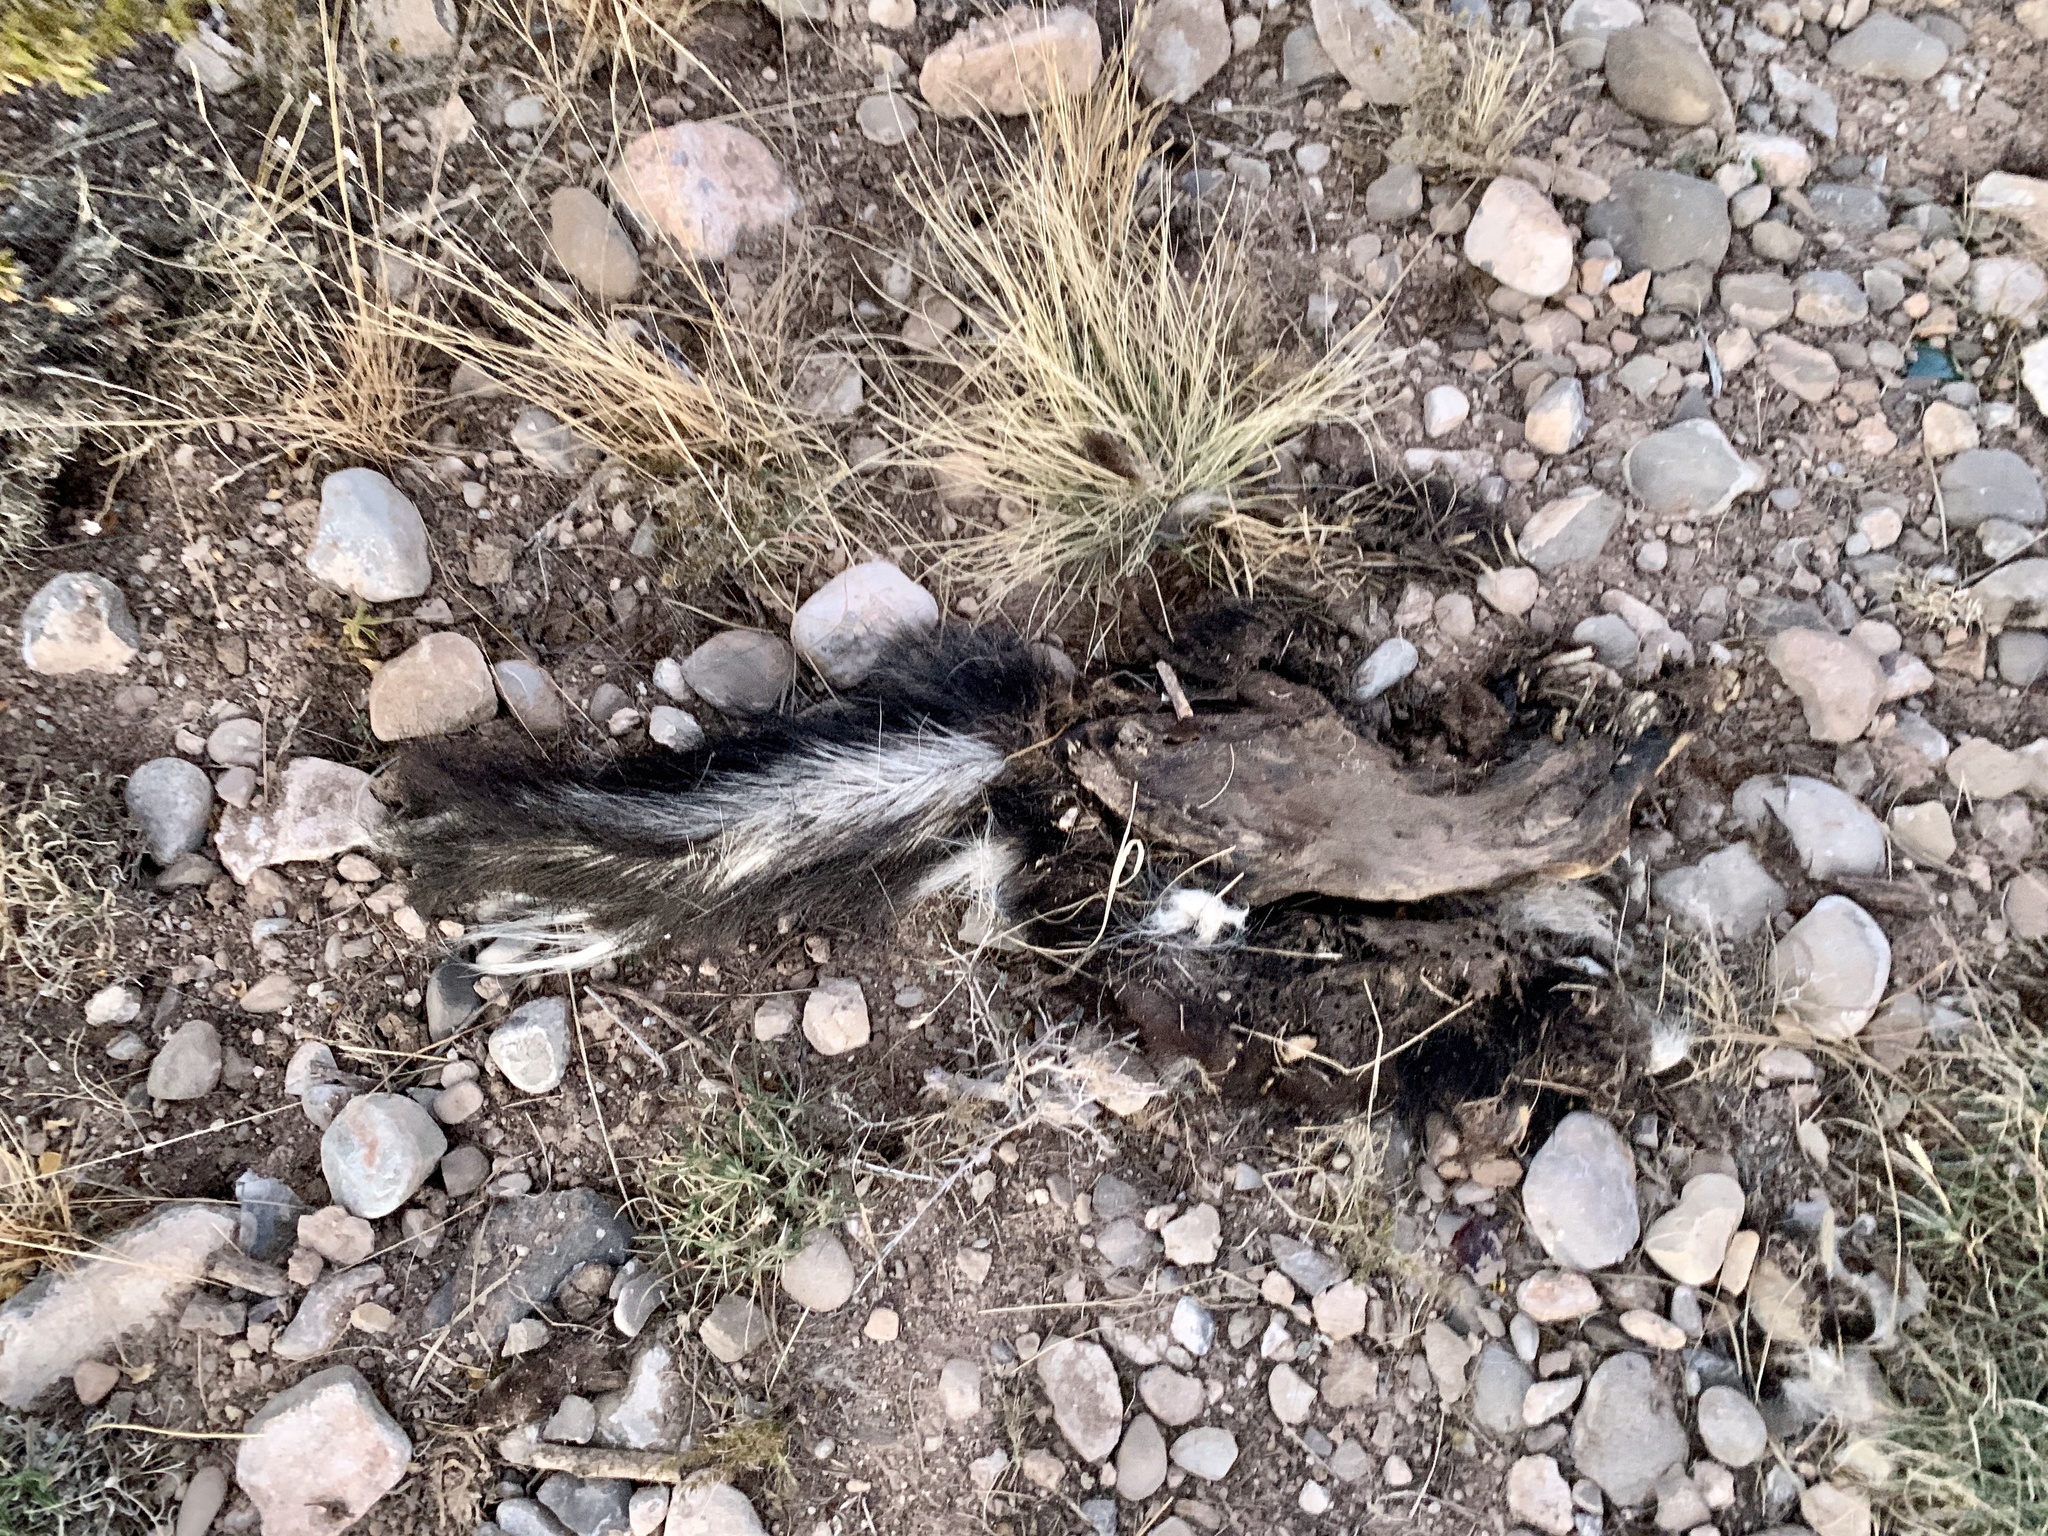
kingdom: Animalia
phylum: Chordata
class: Mammalia
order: Carnivora
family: Mephitidae
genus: Mephitis
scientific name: Mephitis mephitis
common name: Striped skunk
